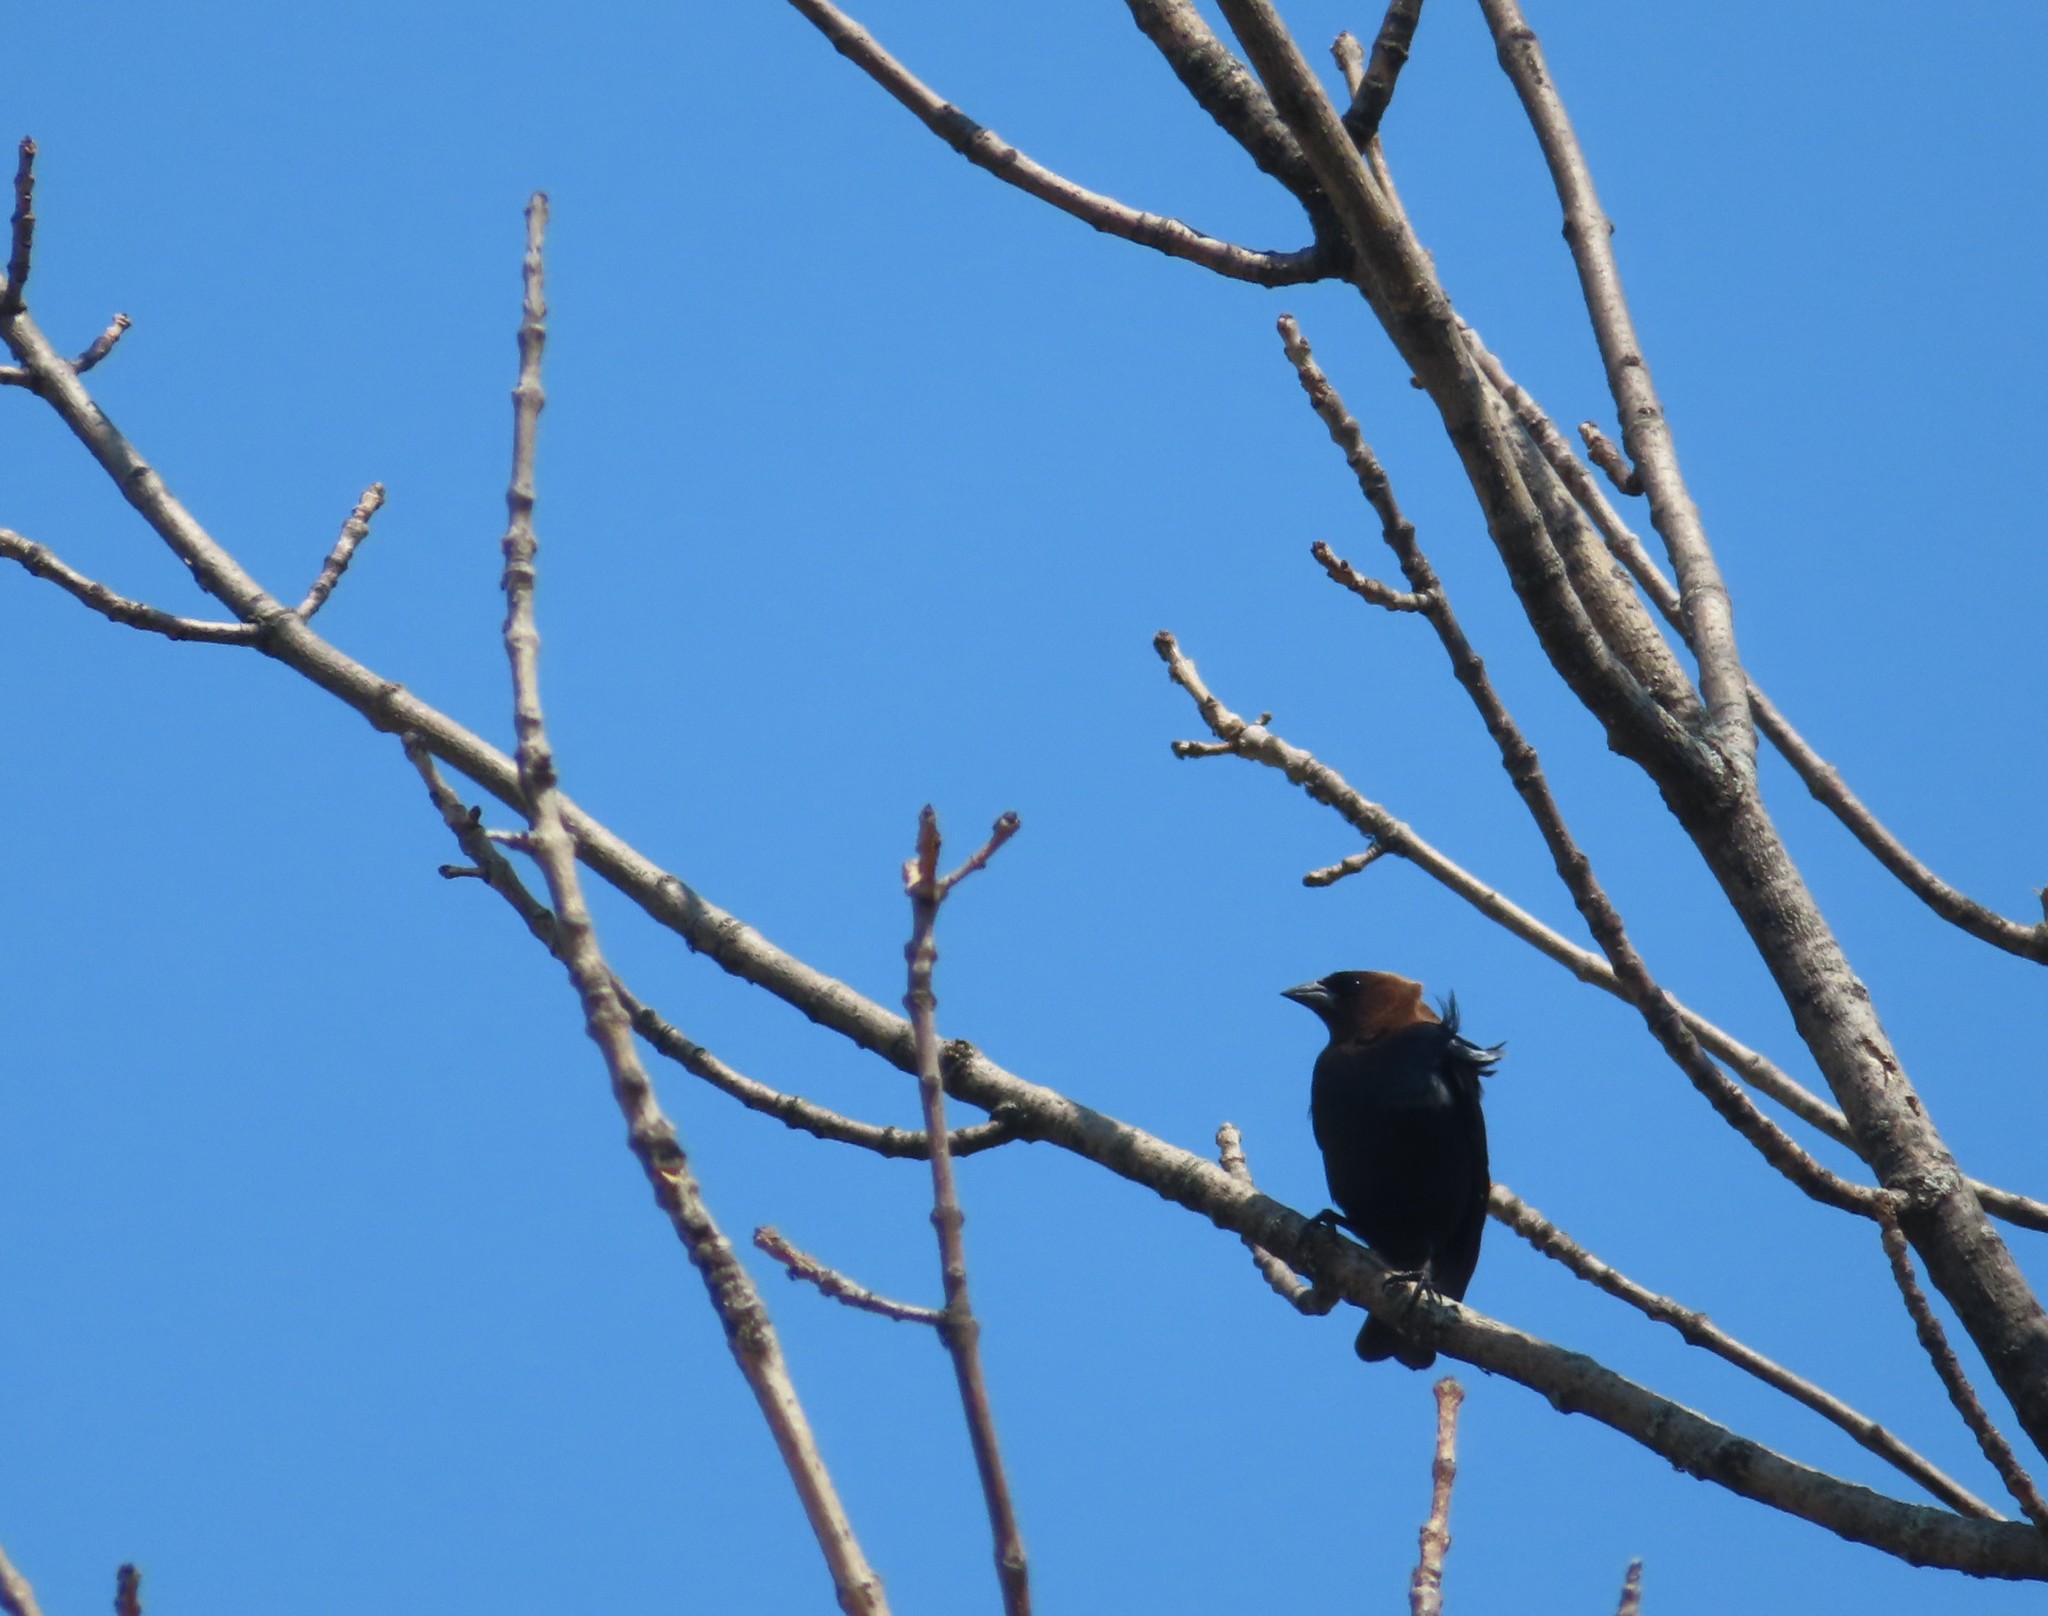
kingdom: Animalia
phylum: Chordata
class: Aves
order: Passeriformes
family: Icteridae
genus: Molothrus
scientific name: Molothrus ater
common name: Brown-headed cowbird
